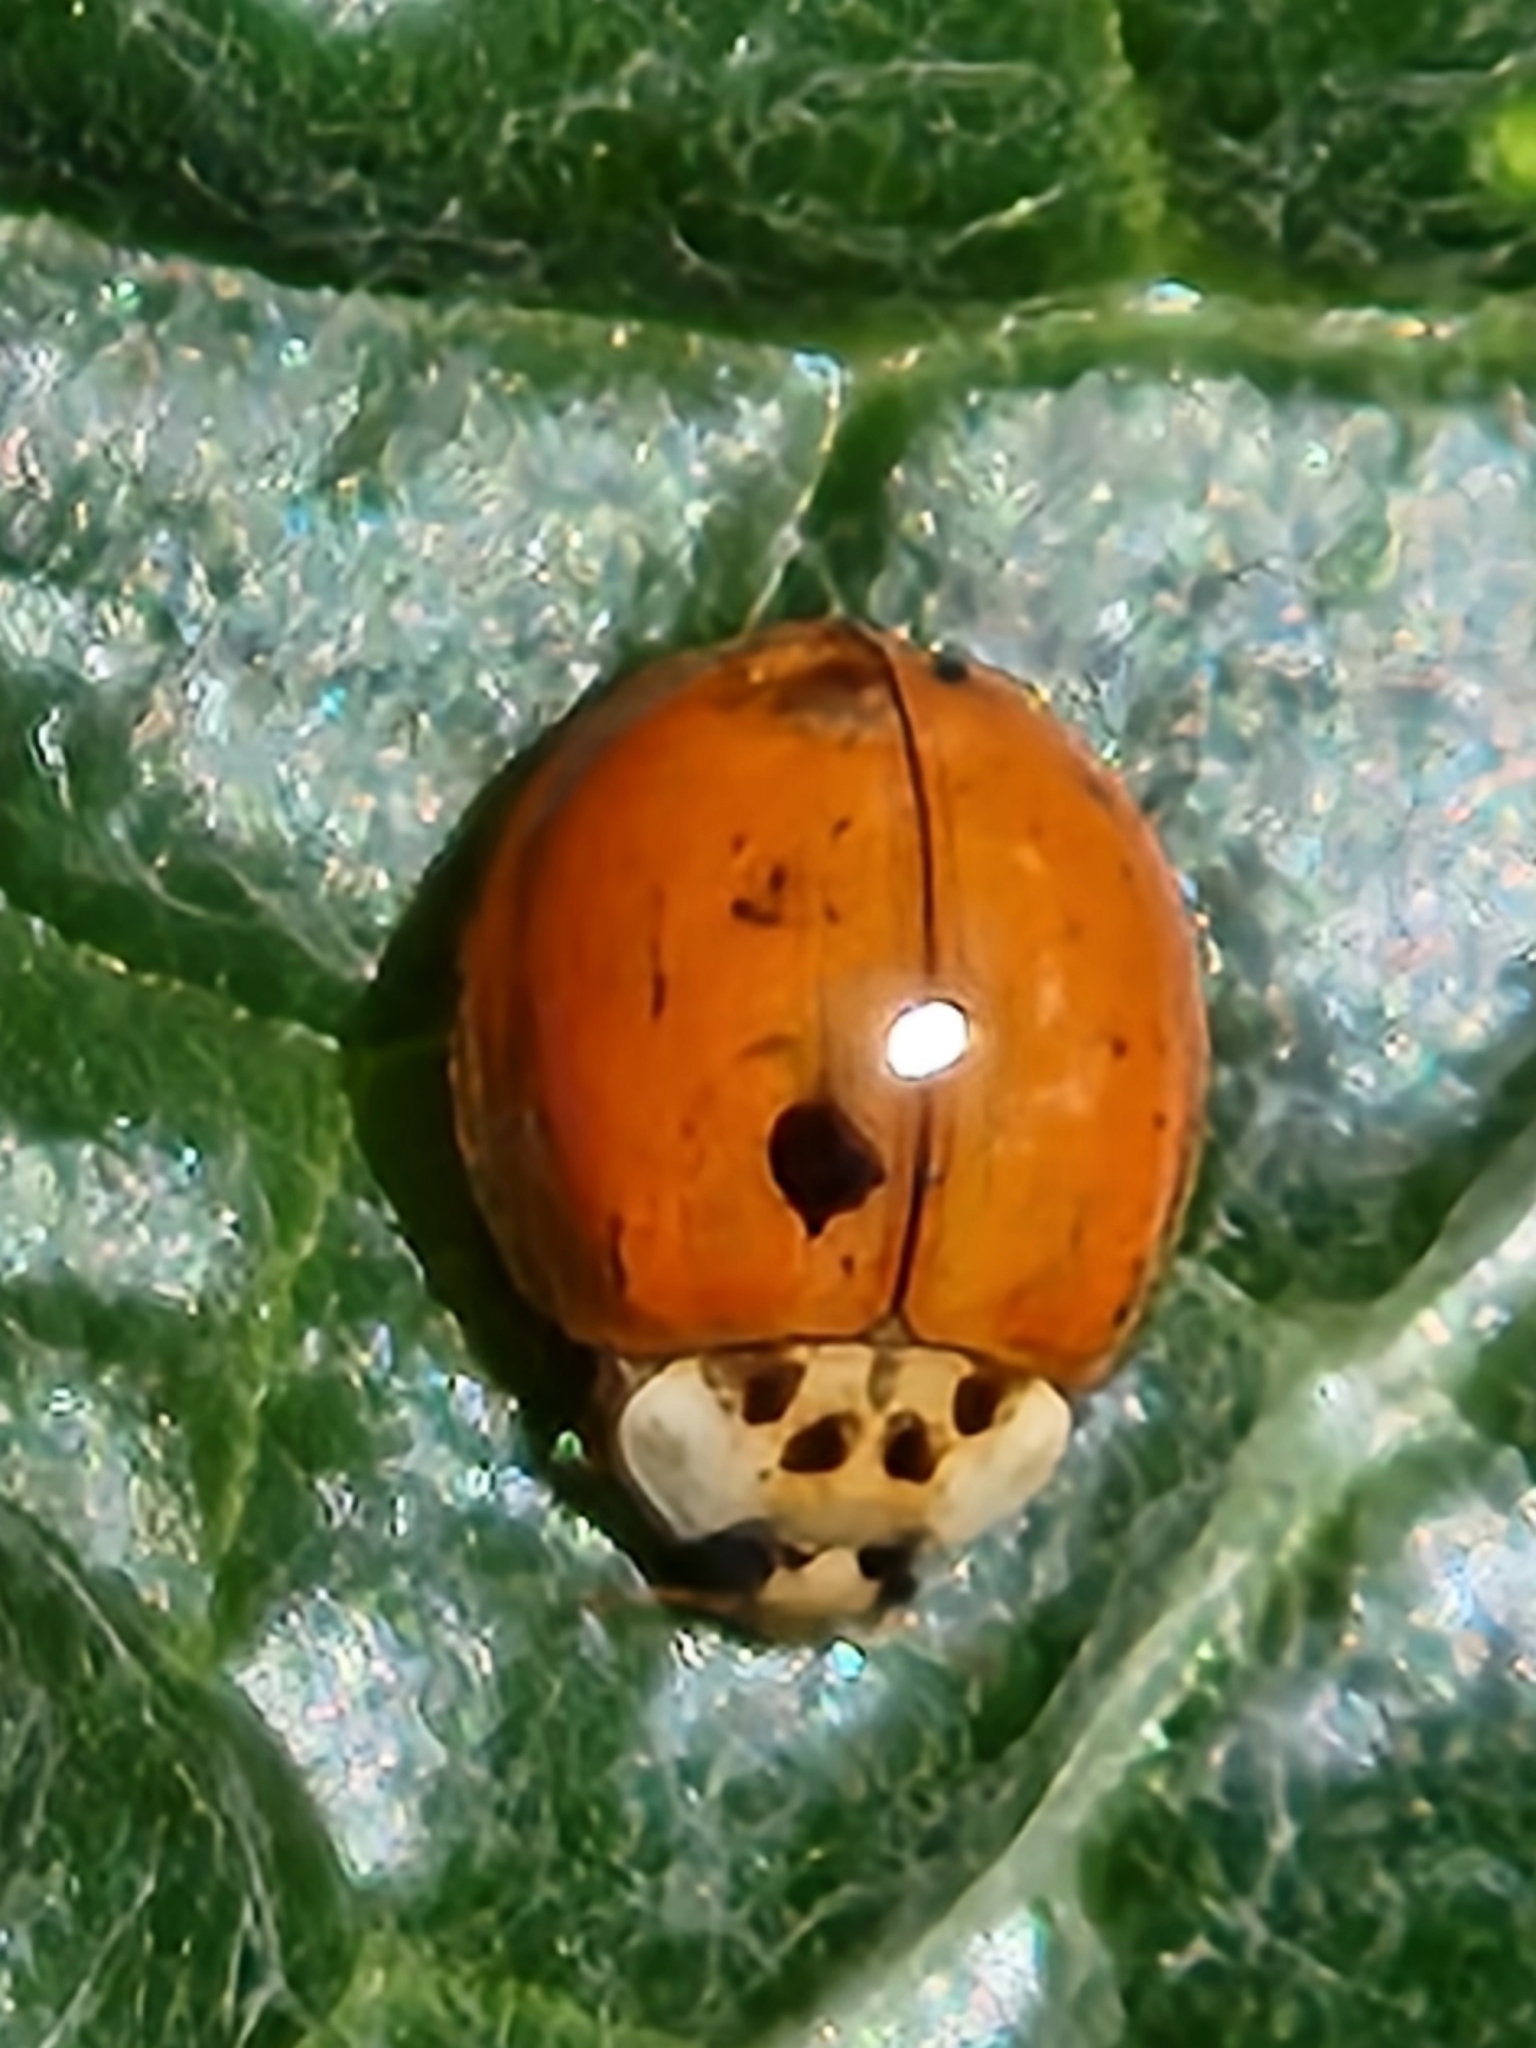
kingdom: Animalia
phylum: Arthropoda
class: Insecta
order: Coleoptera
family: Coccinellidae
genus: Harmonia
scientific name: Harmonia axyridis
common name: Harlequin ladybird
